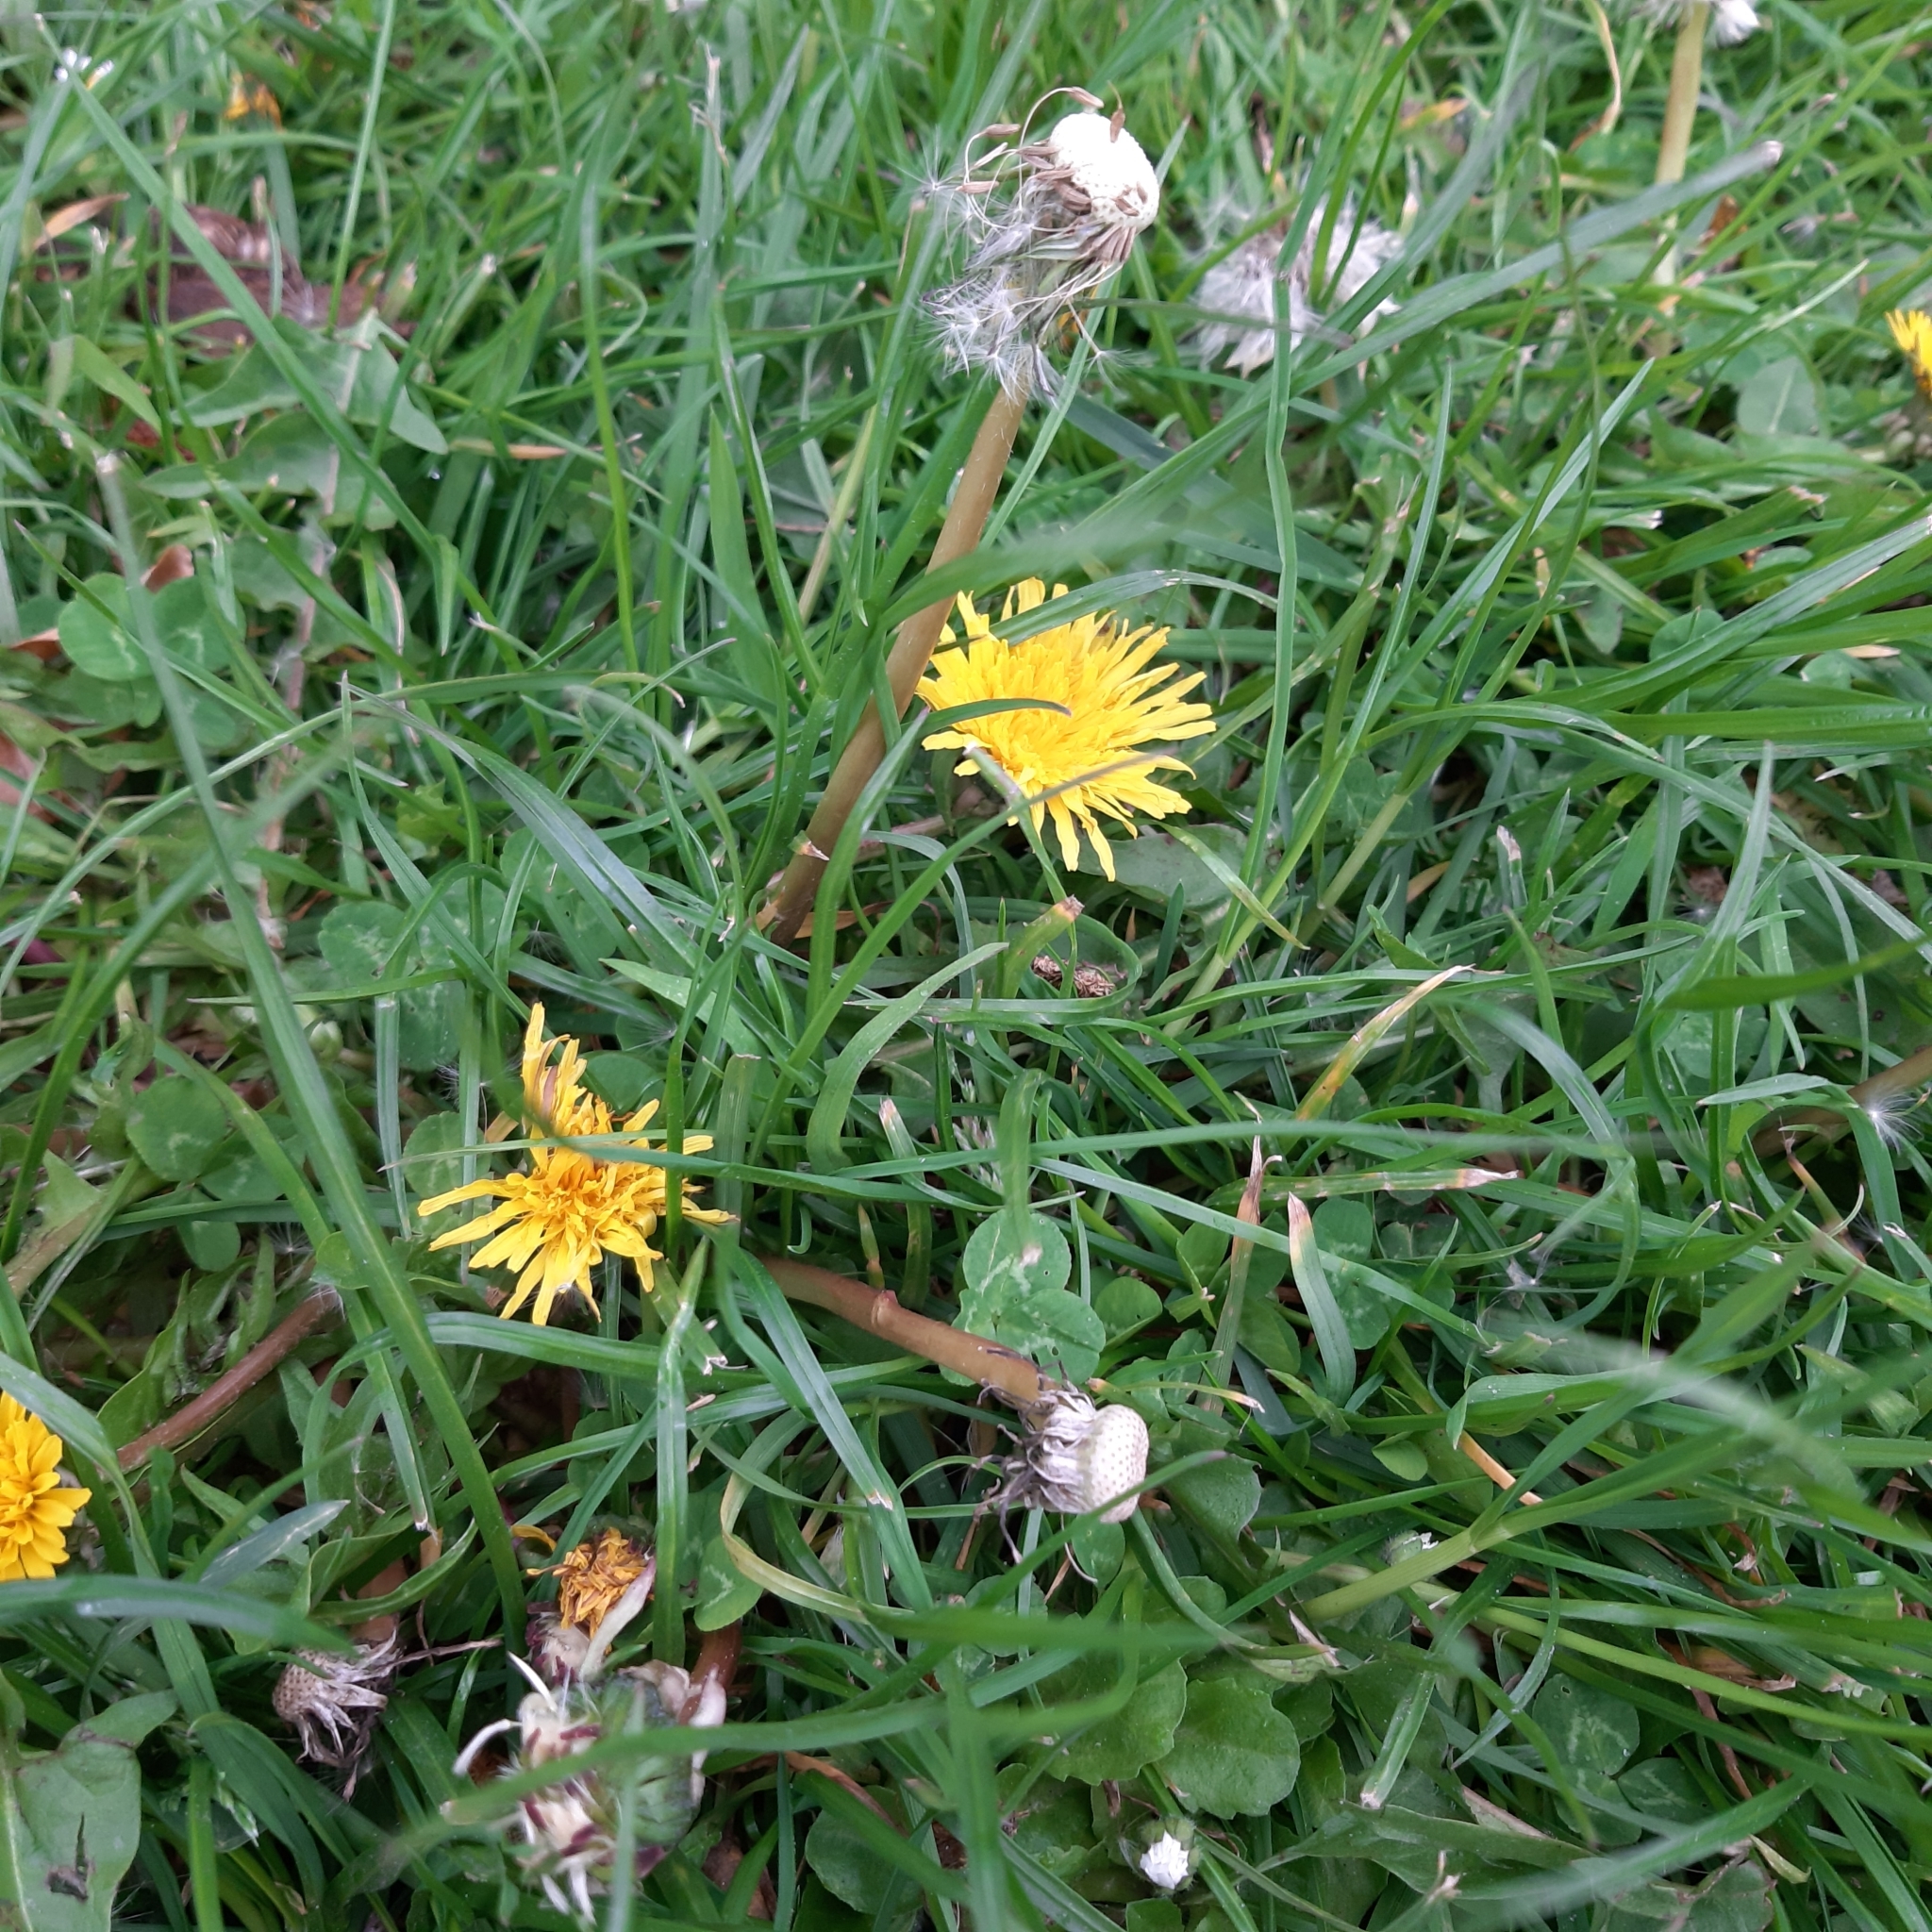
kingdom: Plantae
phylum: Tracheophyta
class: Magnoliopsida
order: Asterales
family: Asteraceae
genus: Taraxacum
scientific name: Taraxacum officinale
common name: Common dandelion
